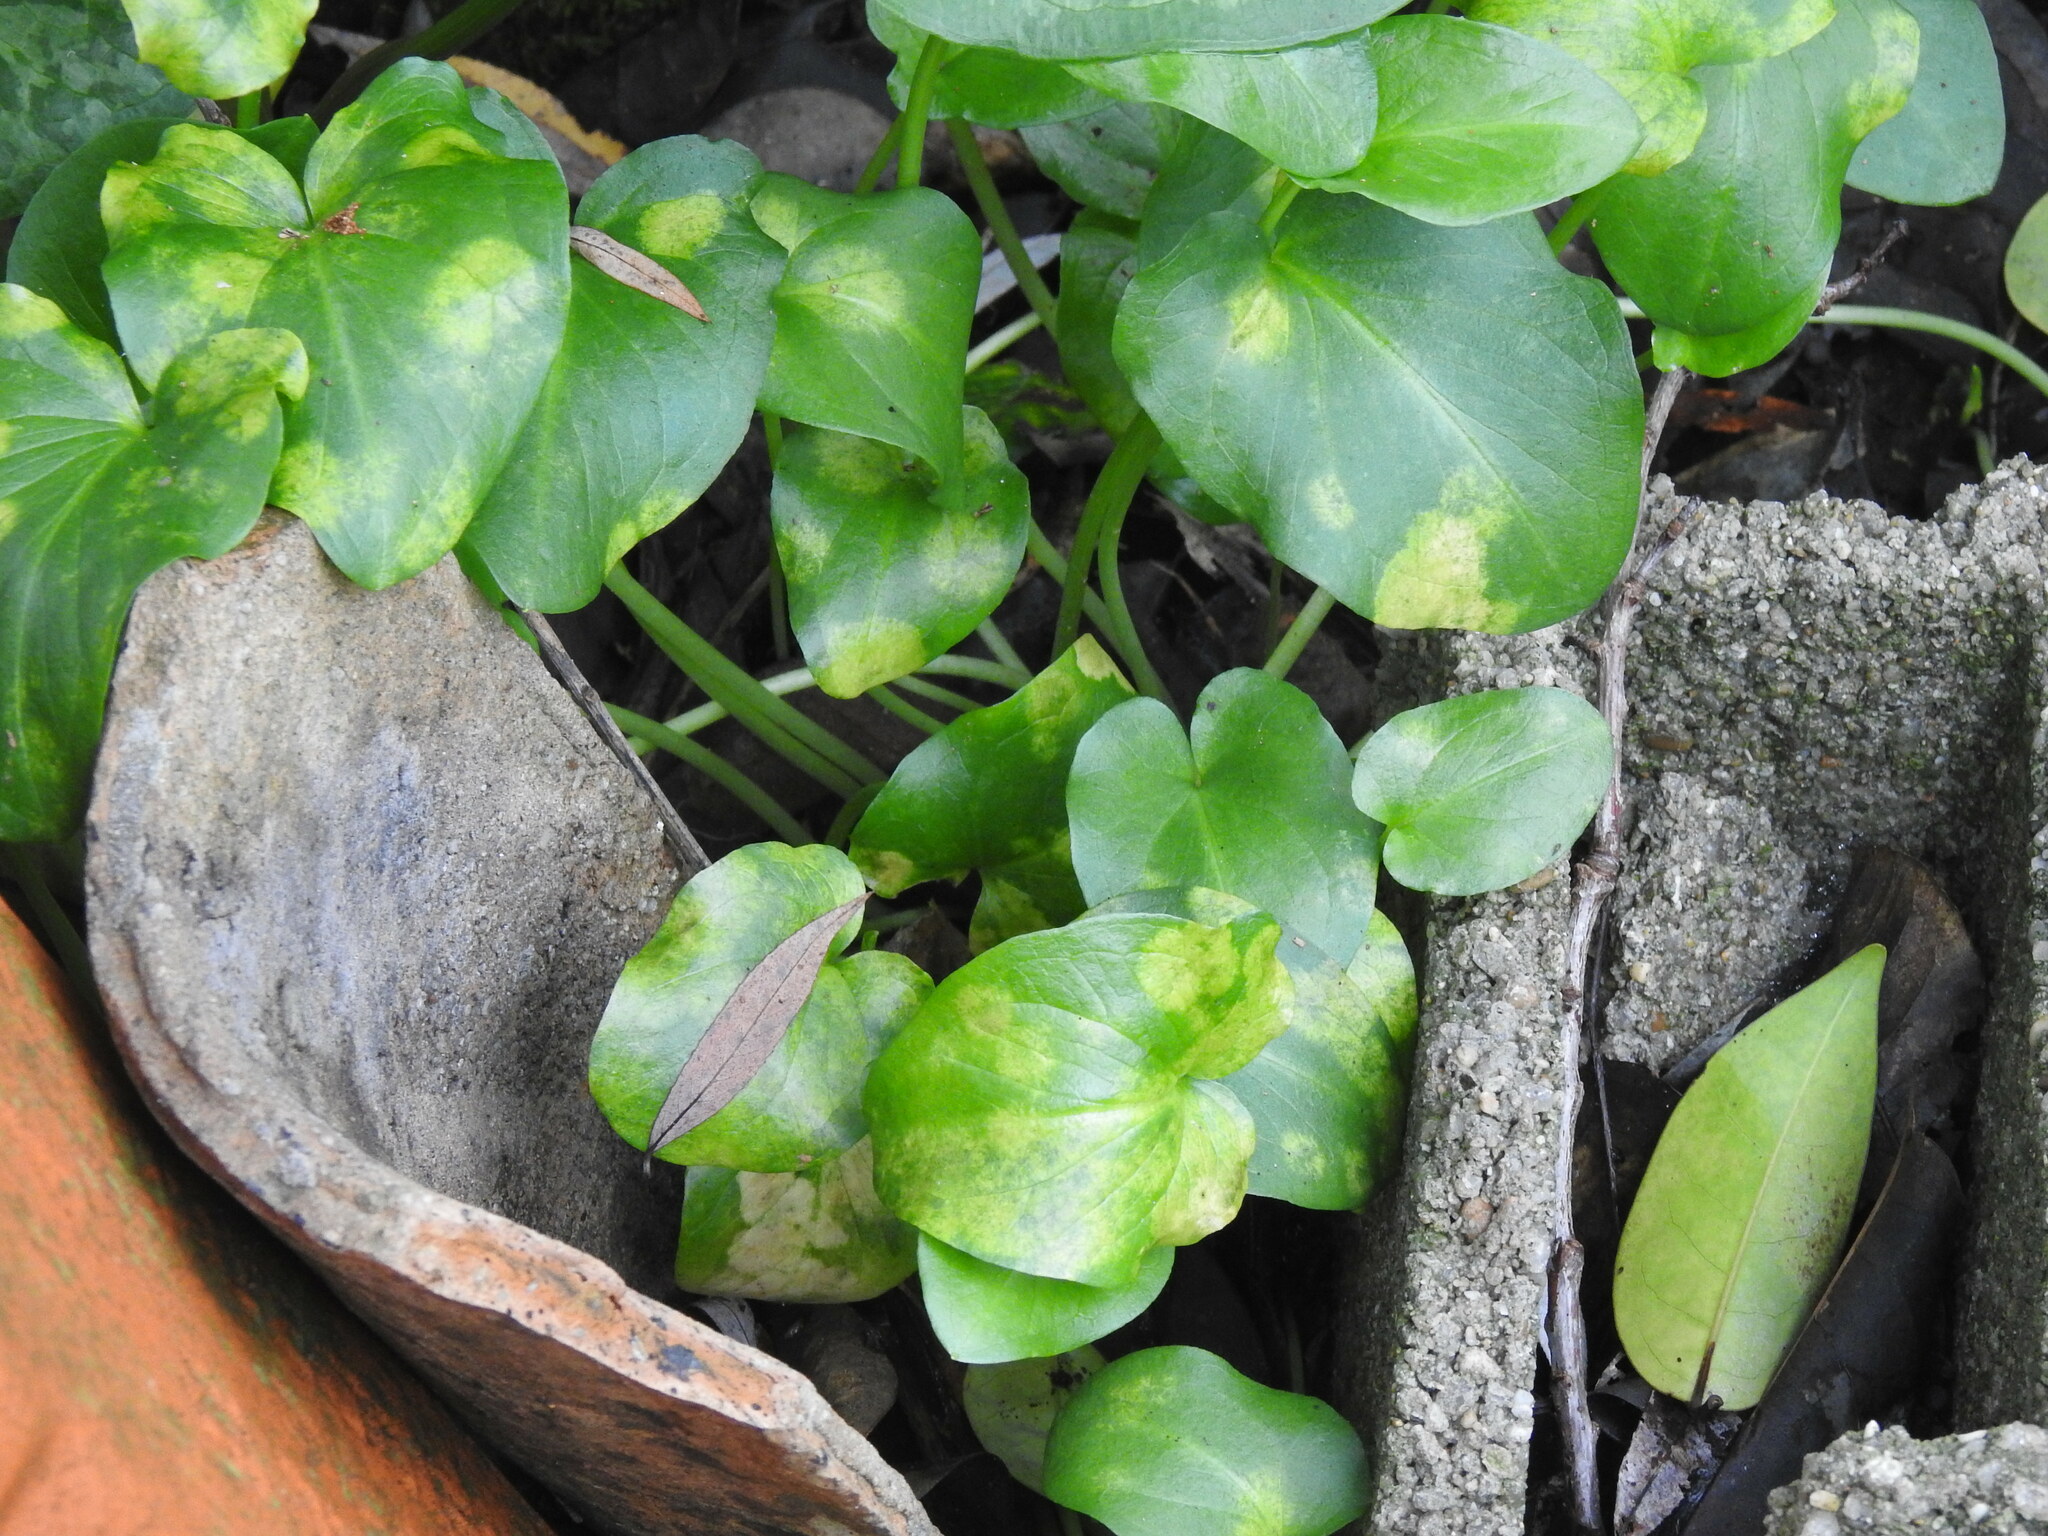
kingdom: Chromista
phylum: Ochrophyta
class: Xanthophyceae
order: Phyllosiphonales
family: Phyllosiphonaceae
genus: Phyllosiphon
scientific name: Phyllosiphon arisari
